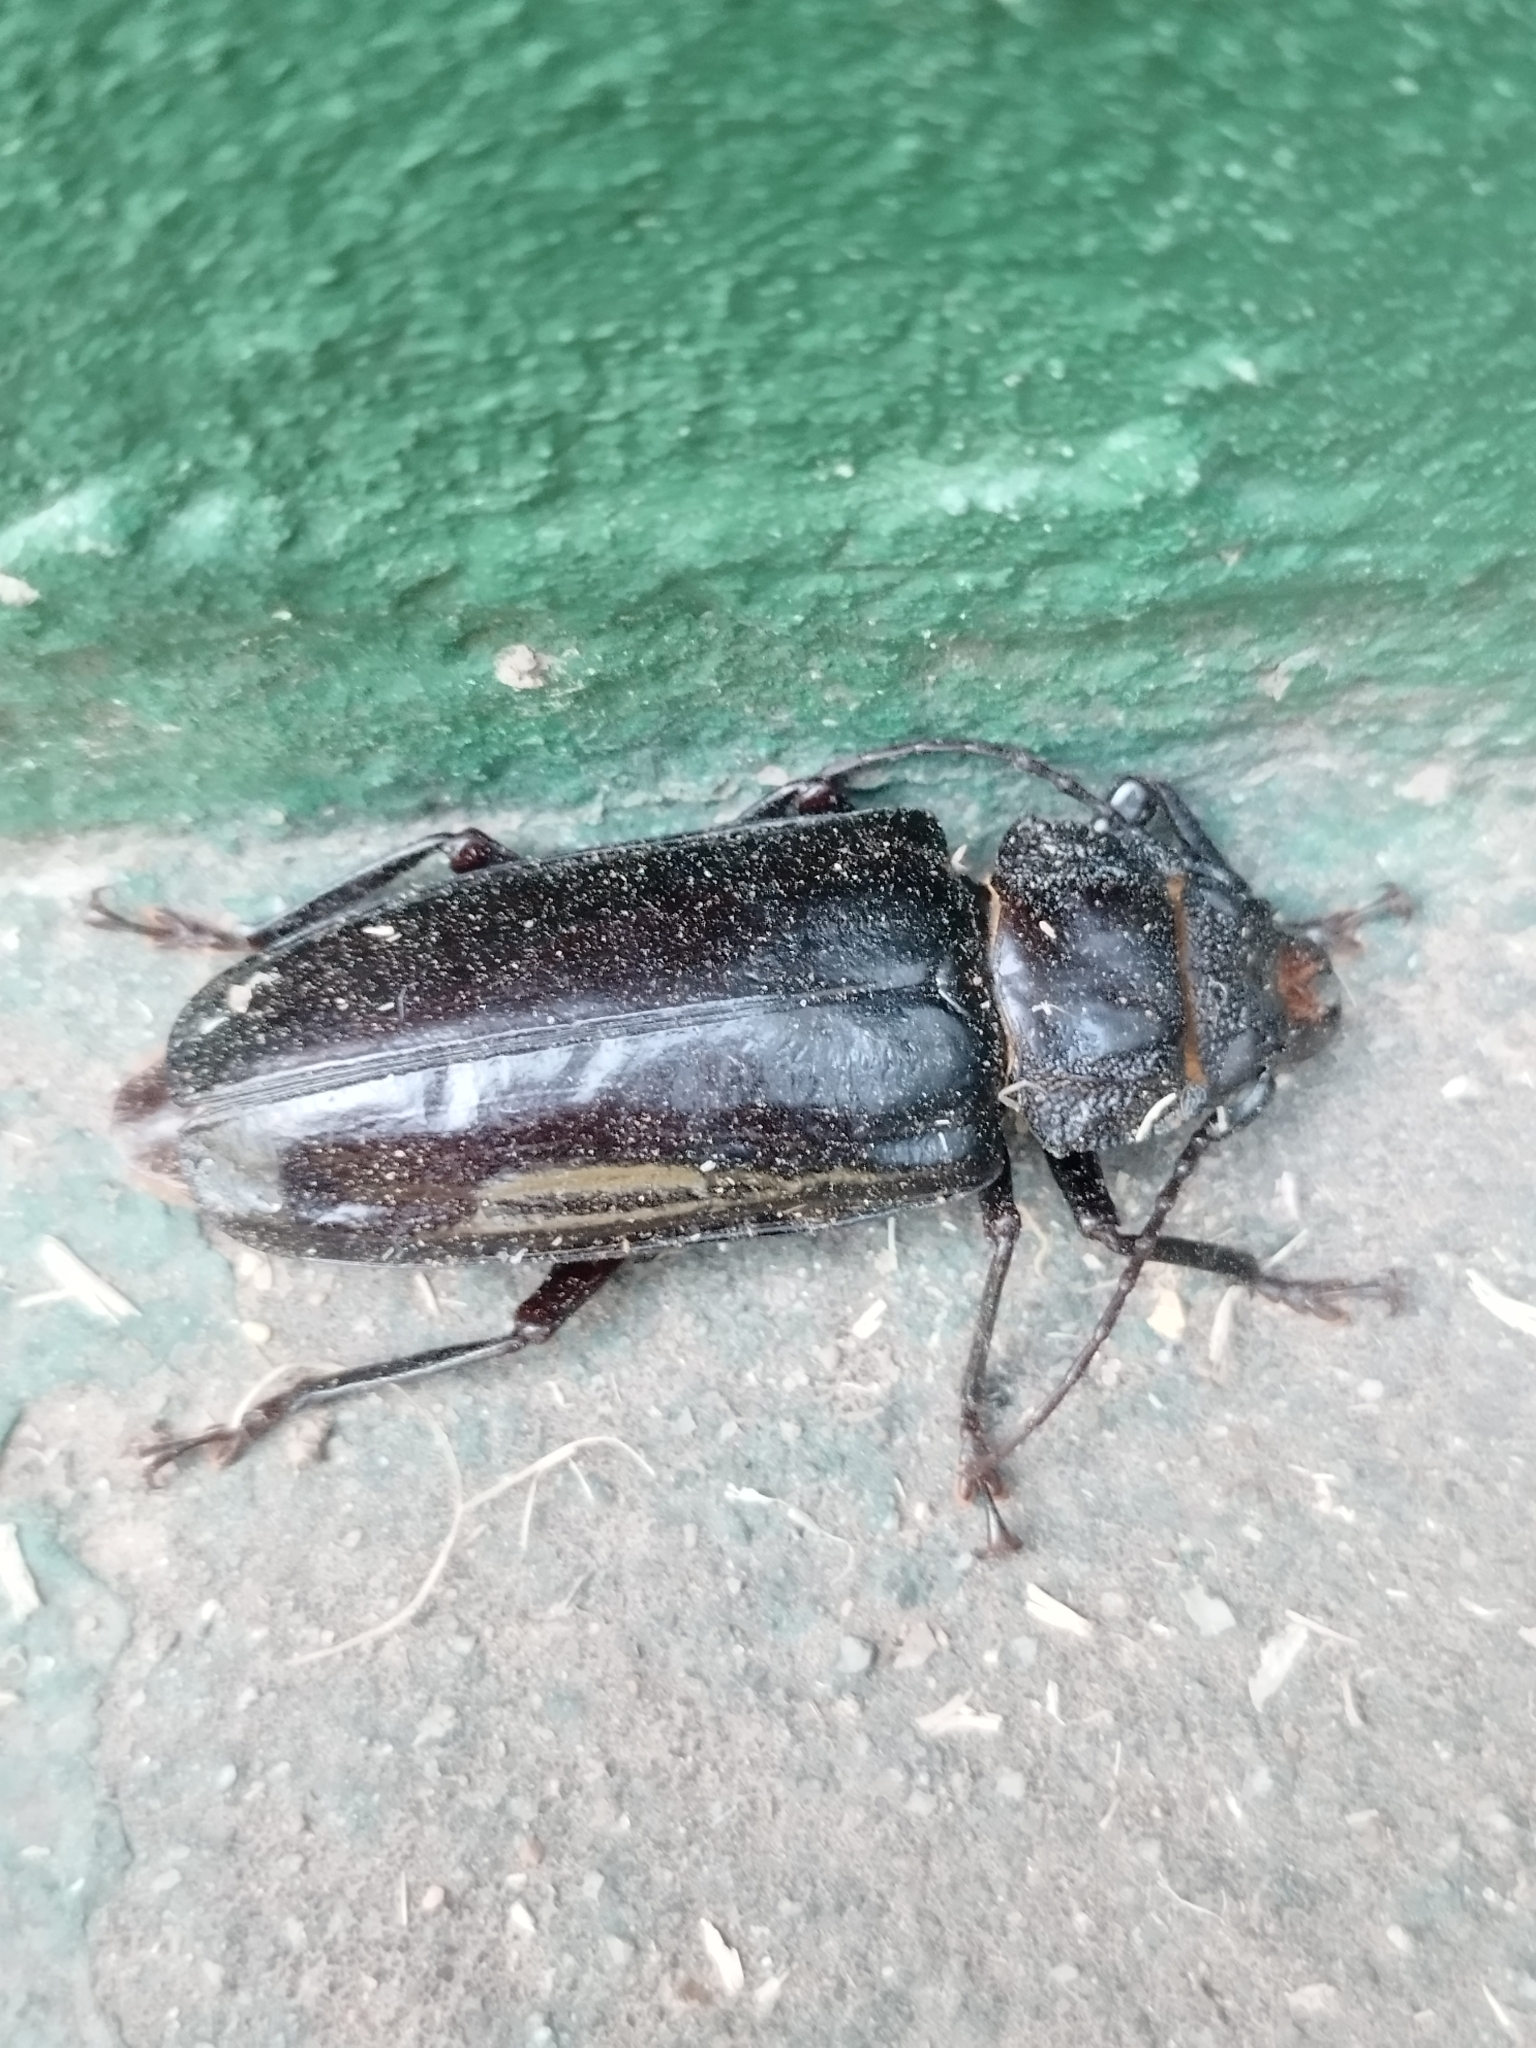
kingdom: Animalia
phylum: Arthropoda
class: Insecta
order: Coleoptera
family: Cerambycidae
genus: Mallodon
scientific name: Mallodon dasystomum
